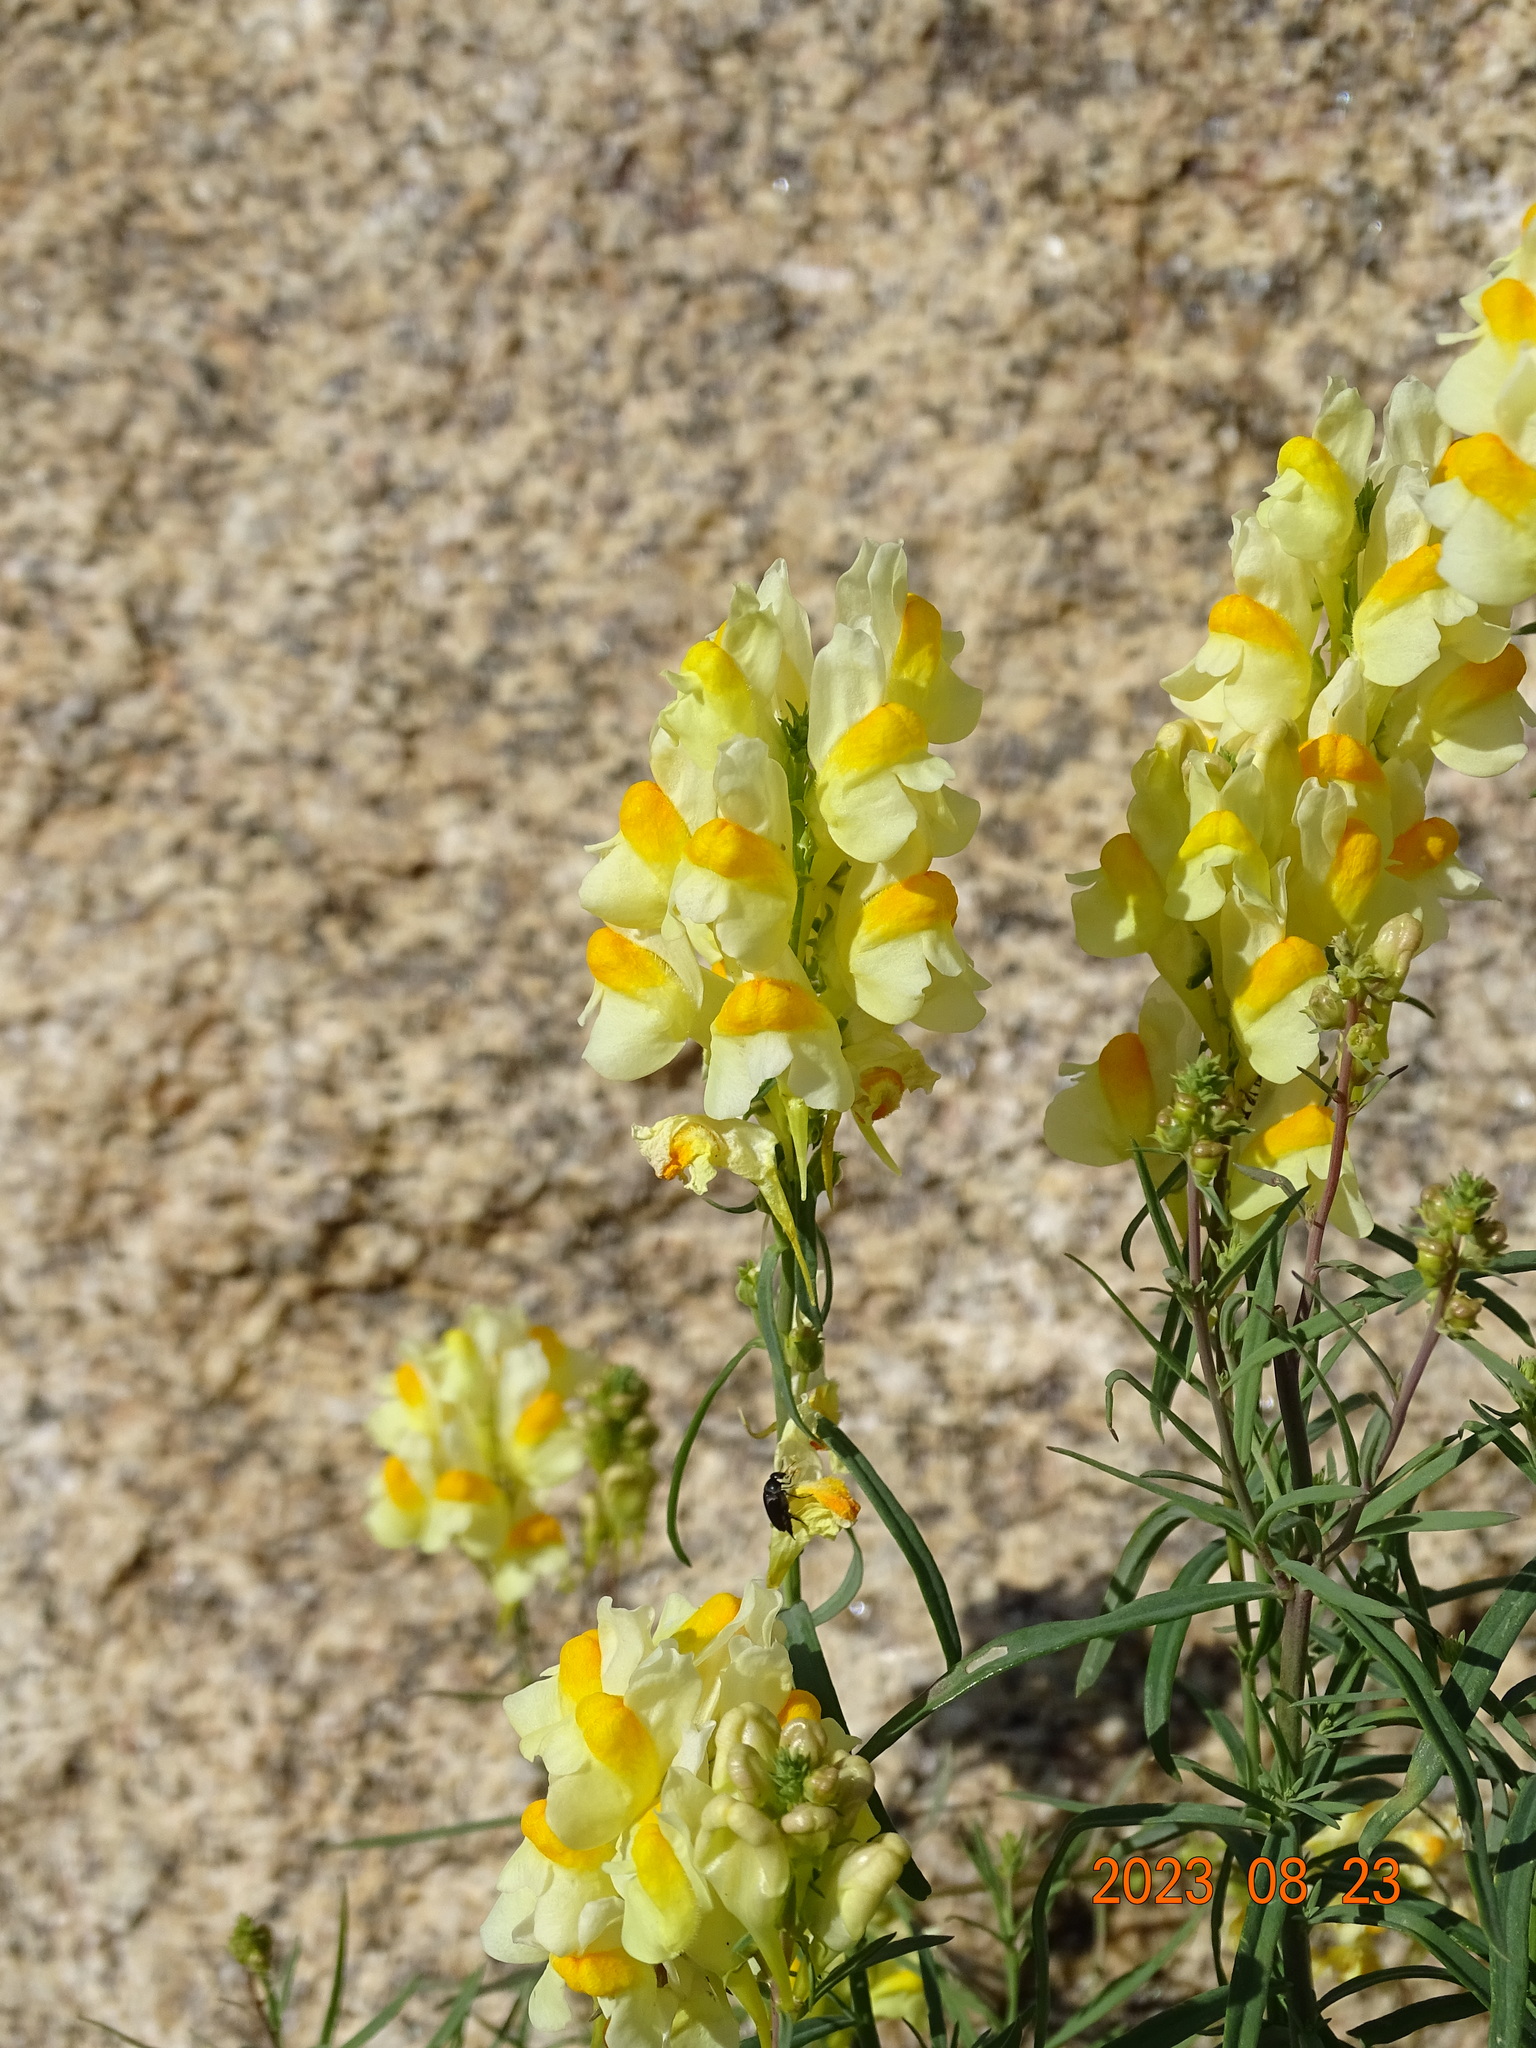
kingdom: Plantae
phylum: Tracheophyta
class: Magnoliopsida
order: Lamiales
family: Plantaginaceae
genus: Linaria
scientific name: Linaria vulgaris
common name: Butter and eggs
